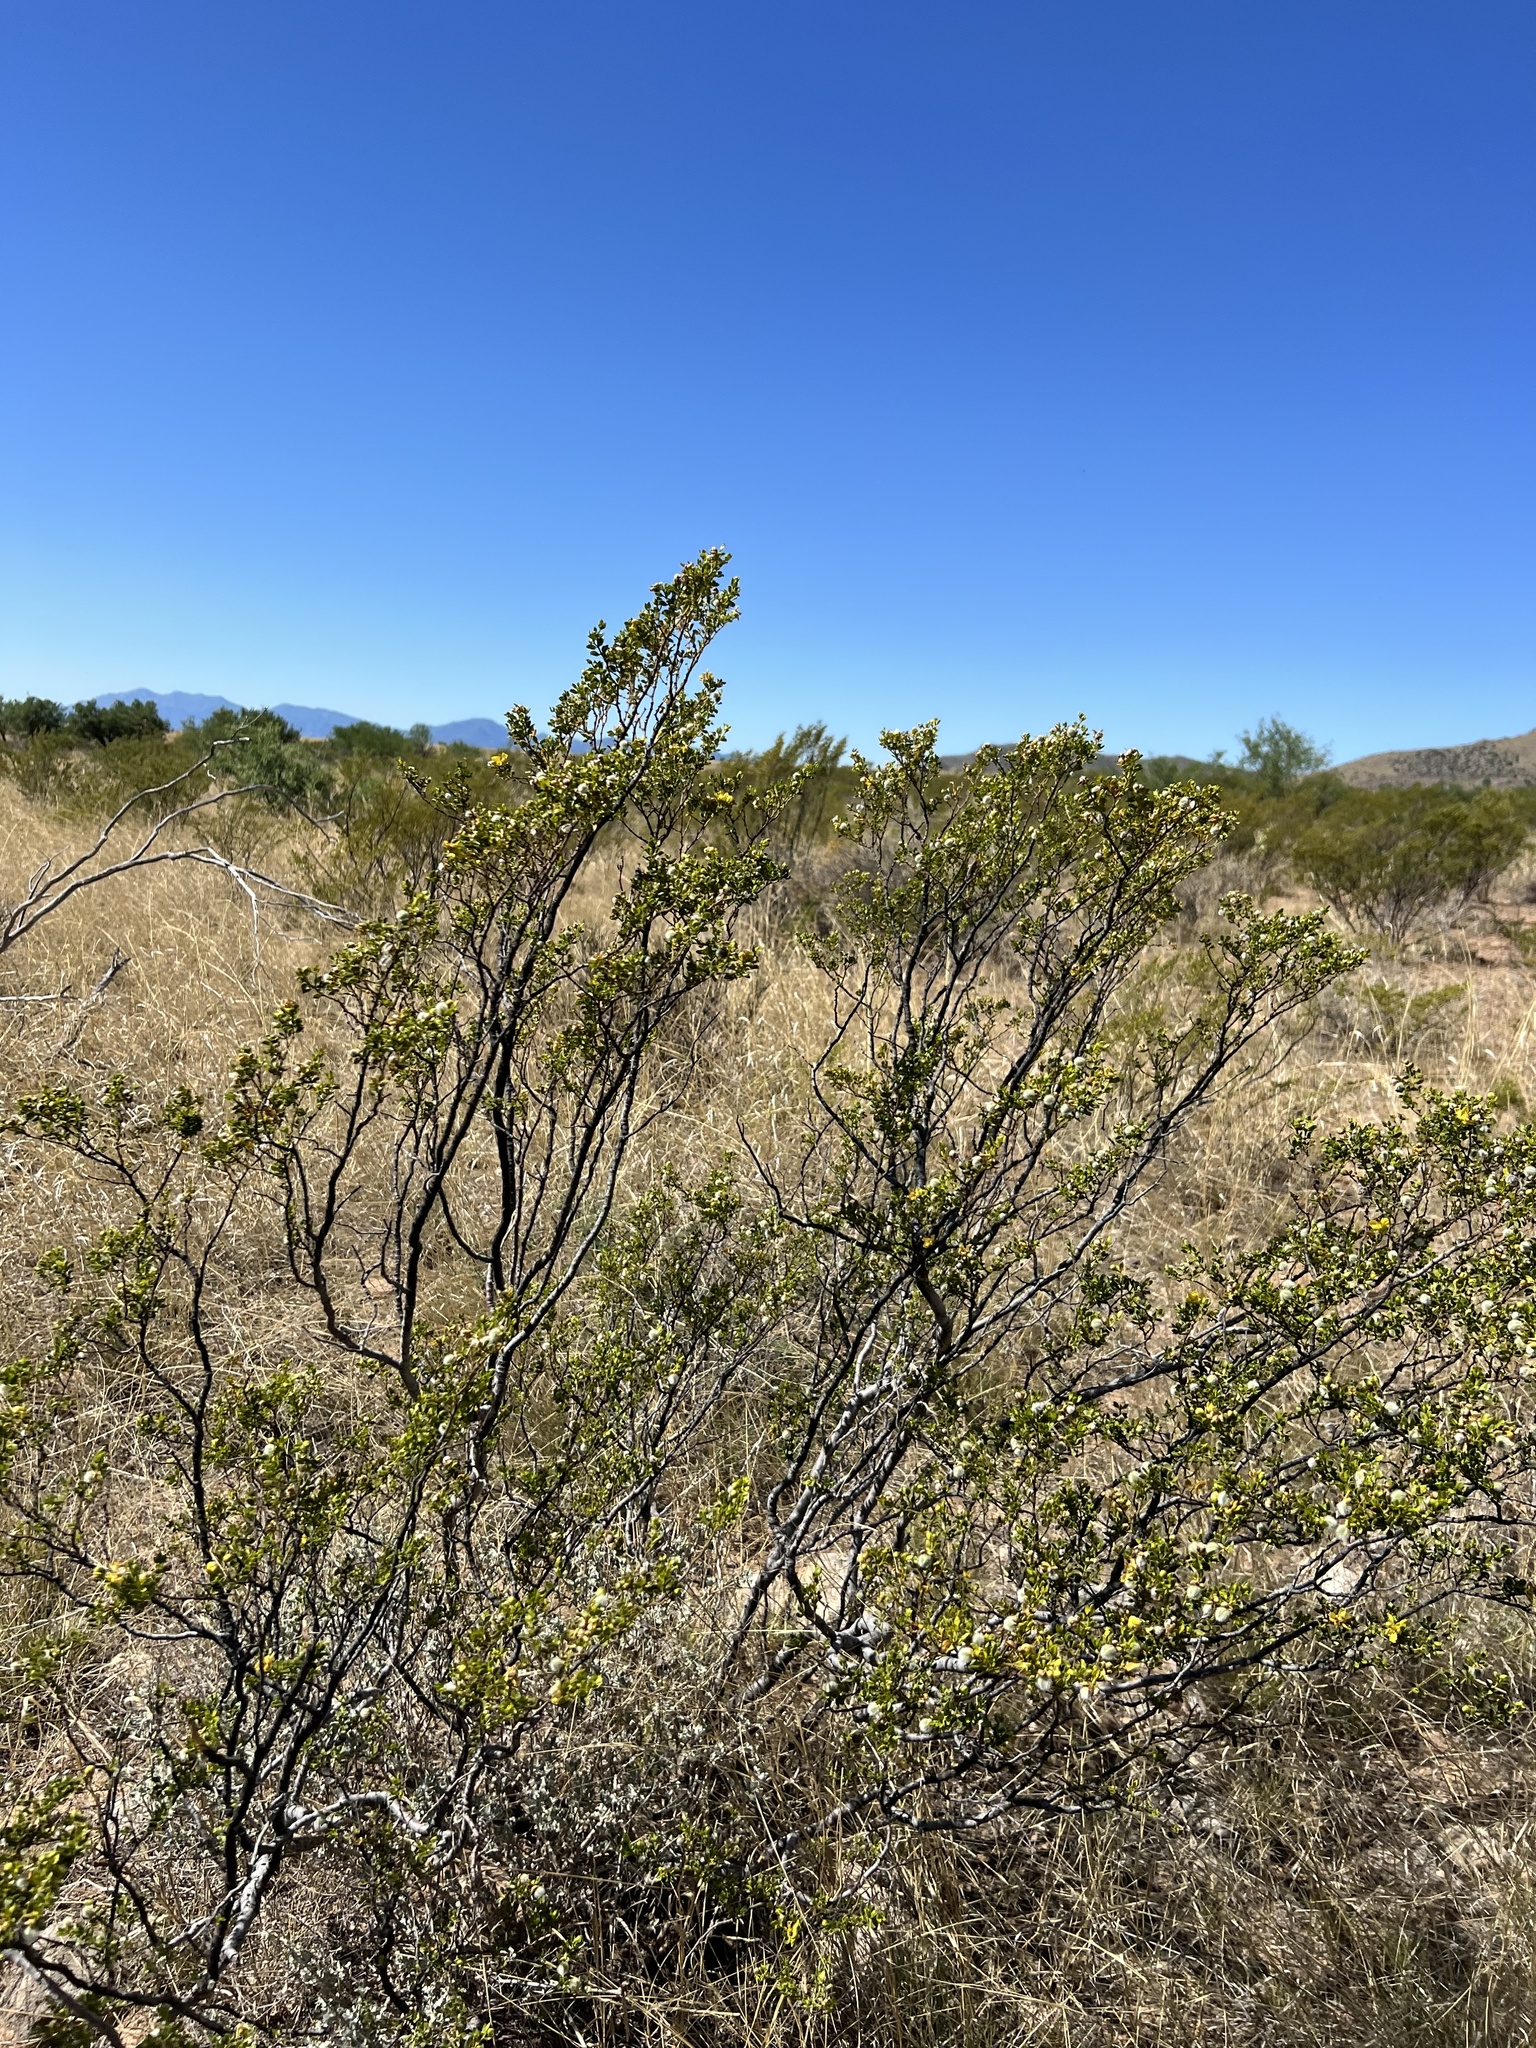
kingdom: Plantae
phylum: Tracheophyta
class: Magnoliopsida
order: Zygophyllales
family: Zygophyllaceae
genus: Larrea
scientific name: Larrea tridentata
